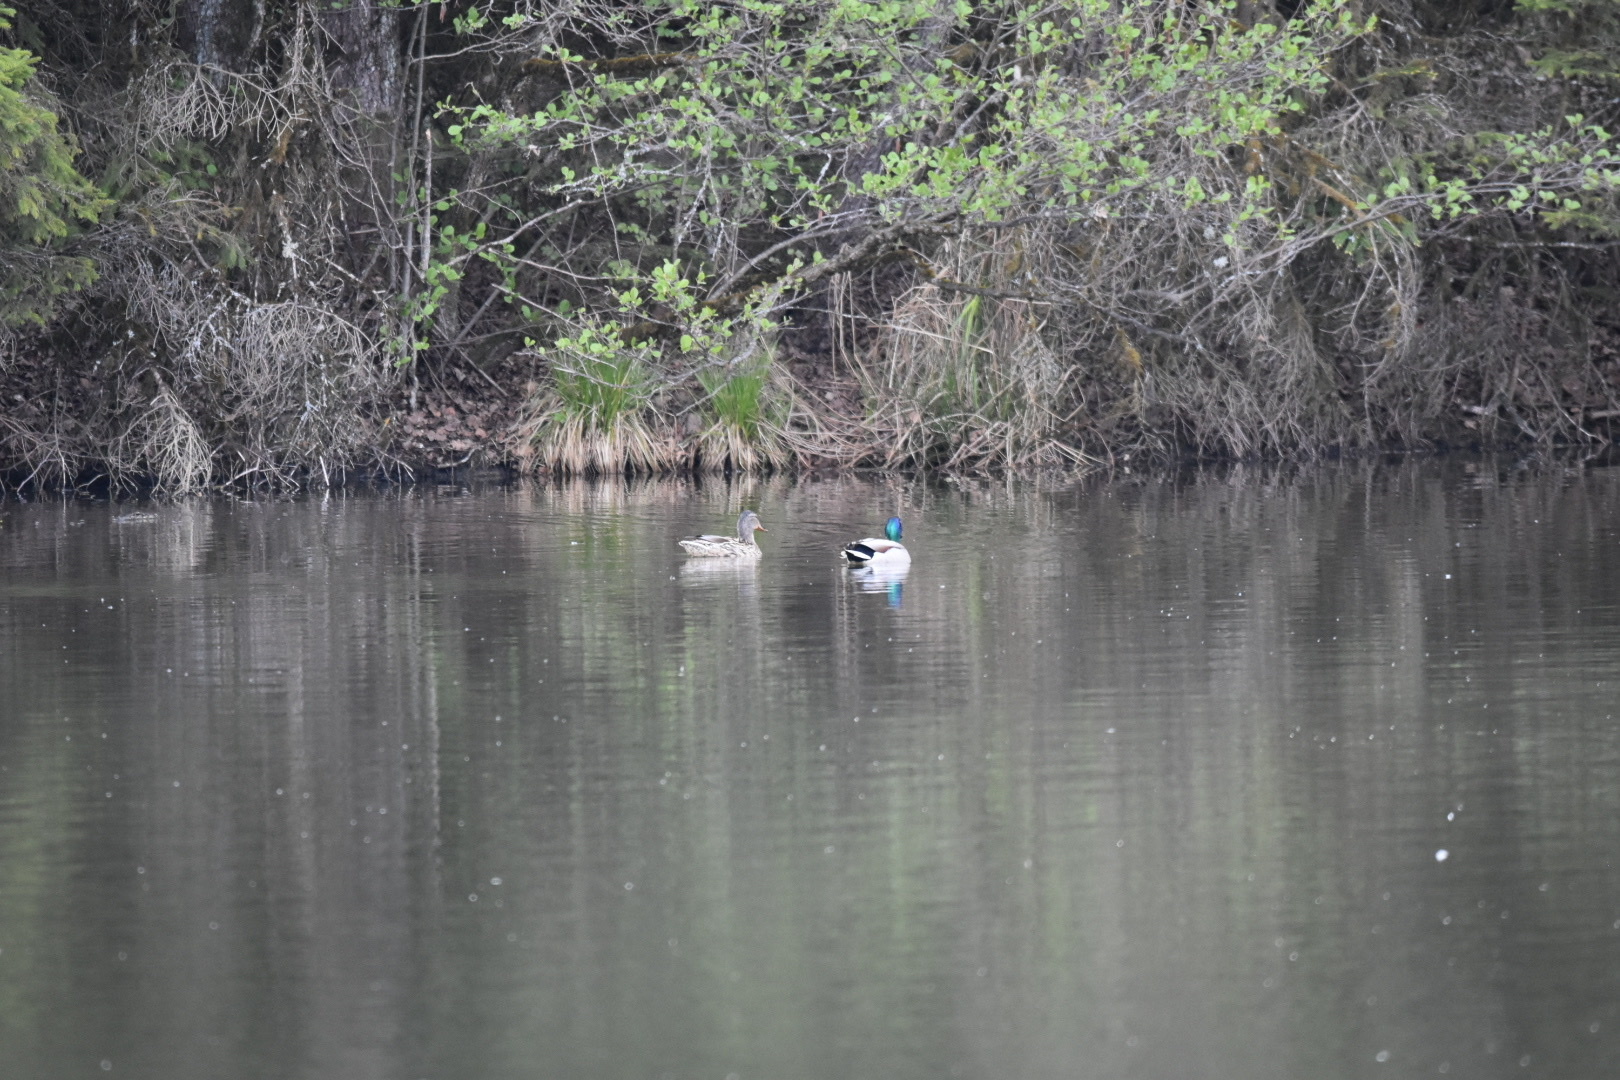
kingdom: Animalia
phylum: Chordata
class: Aves
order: Anseriformes
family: Anatidae
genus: Anas
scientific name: Anas platyrhynchos
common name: Mallard
